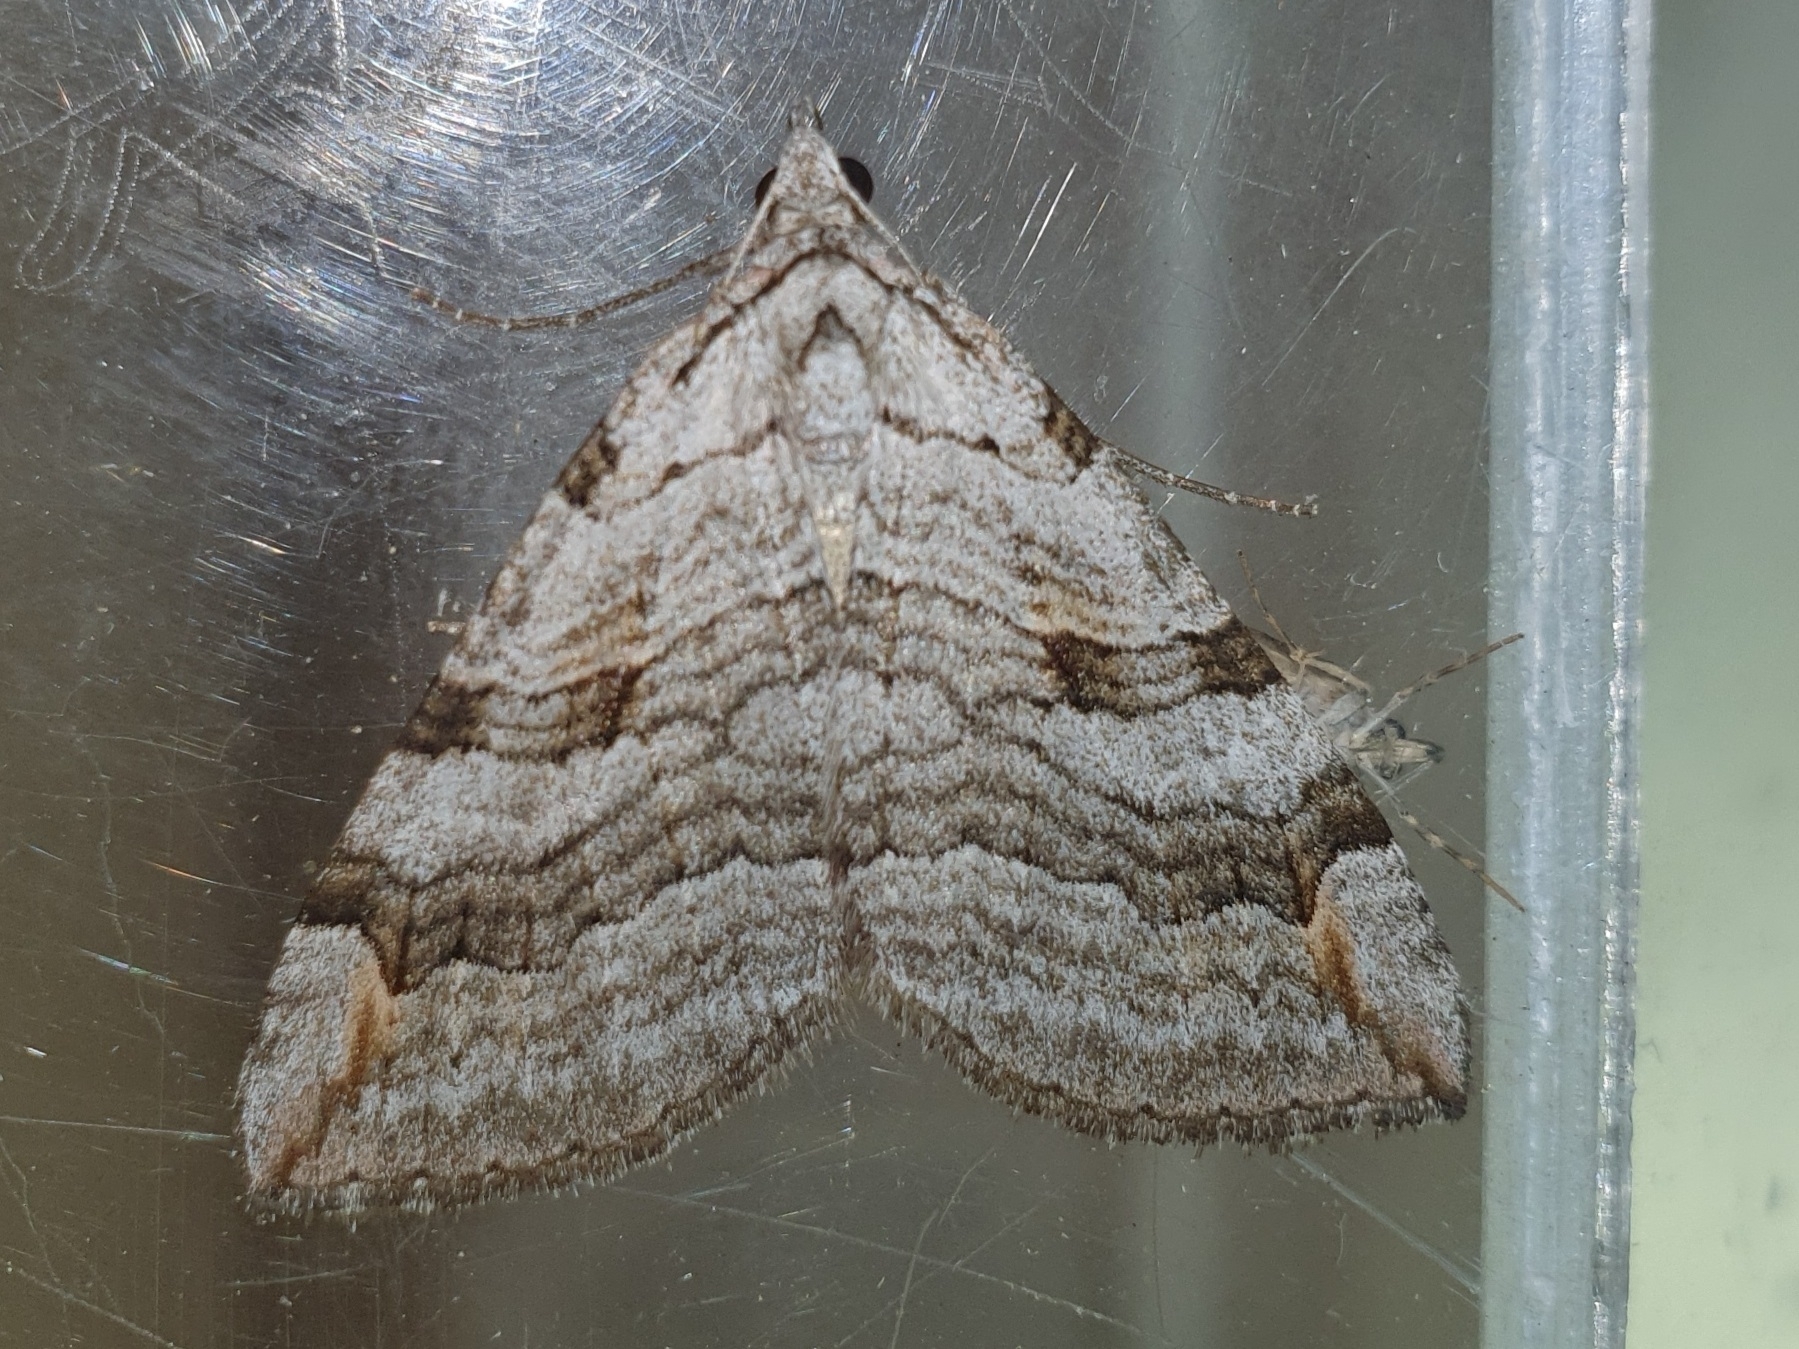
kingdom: Animalia
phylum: Arthropoda
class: Insecta
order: Lepidoptera
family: Geometridae
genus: Aplocera
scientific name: Aplocera plagiata
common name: Treble-bar
